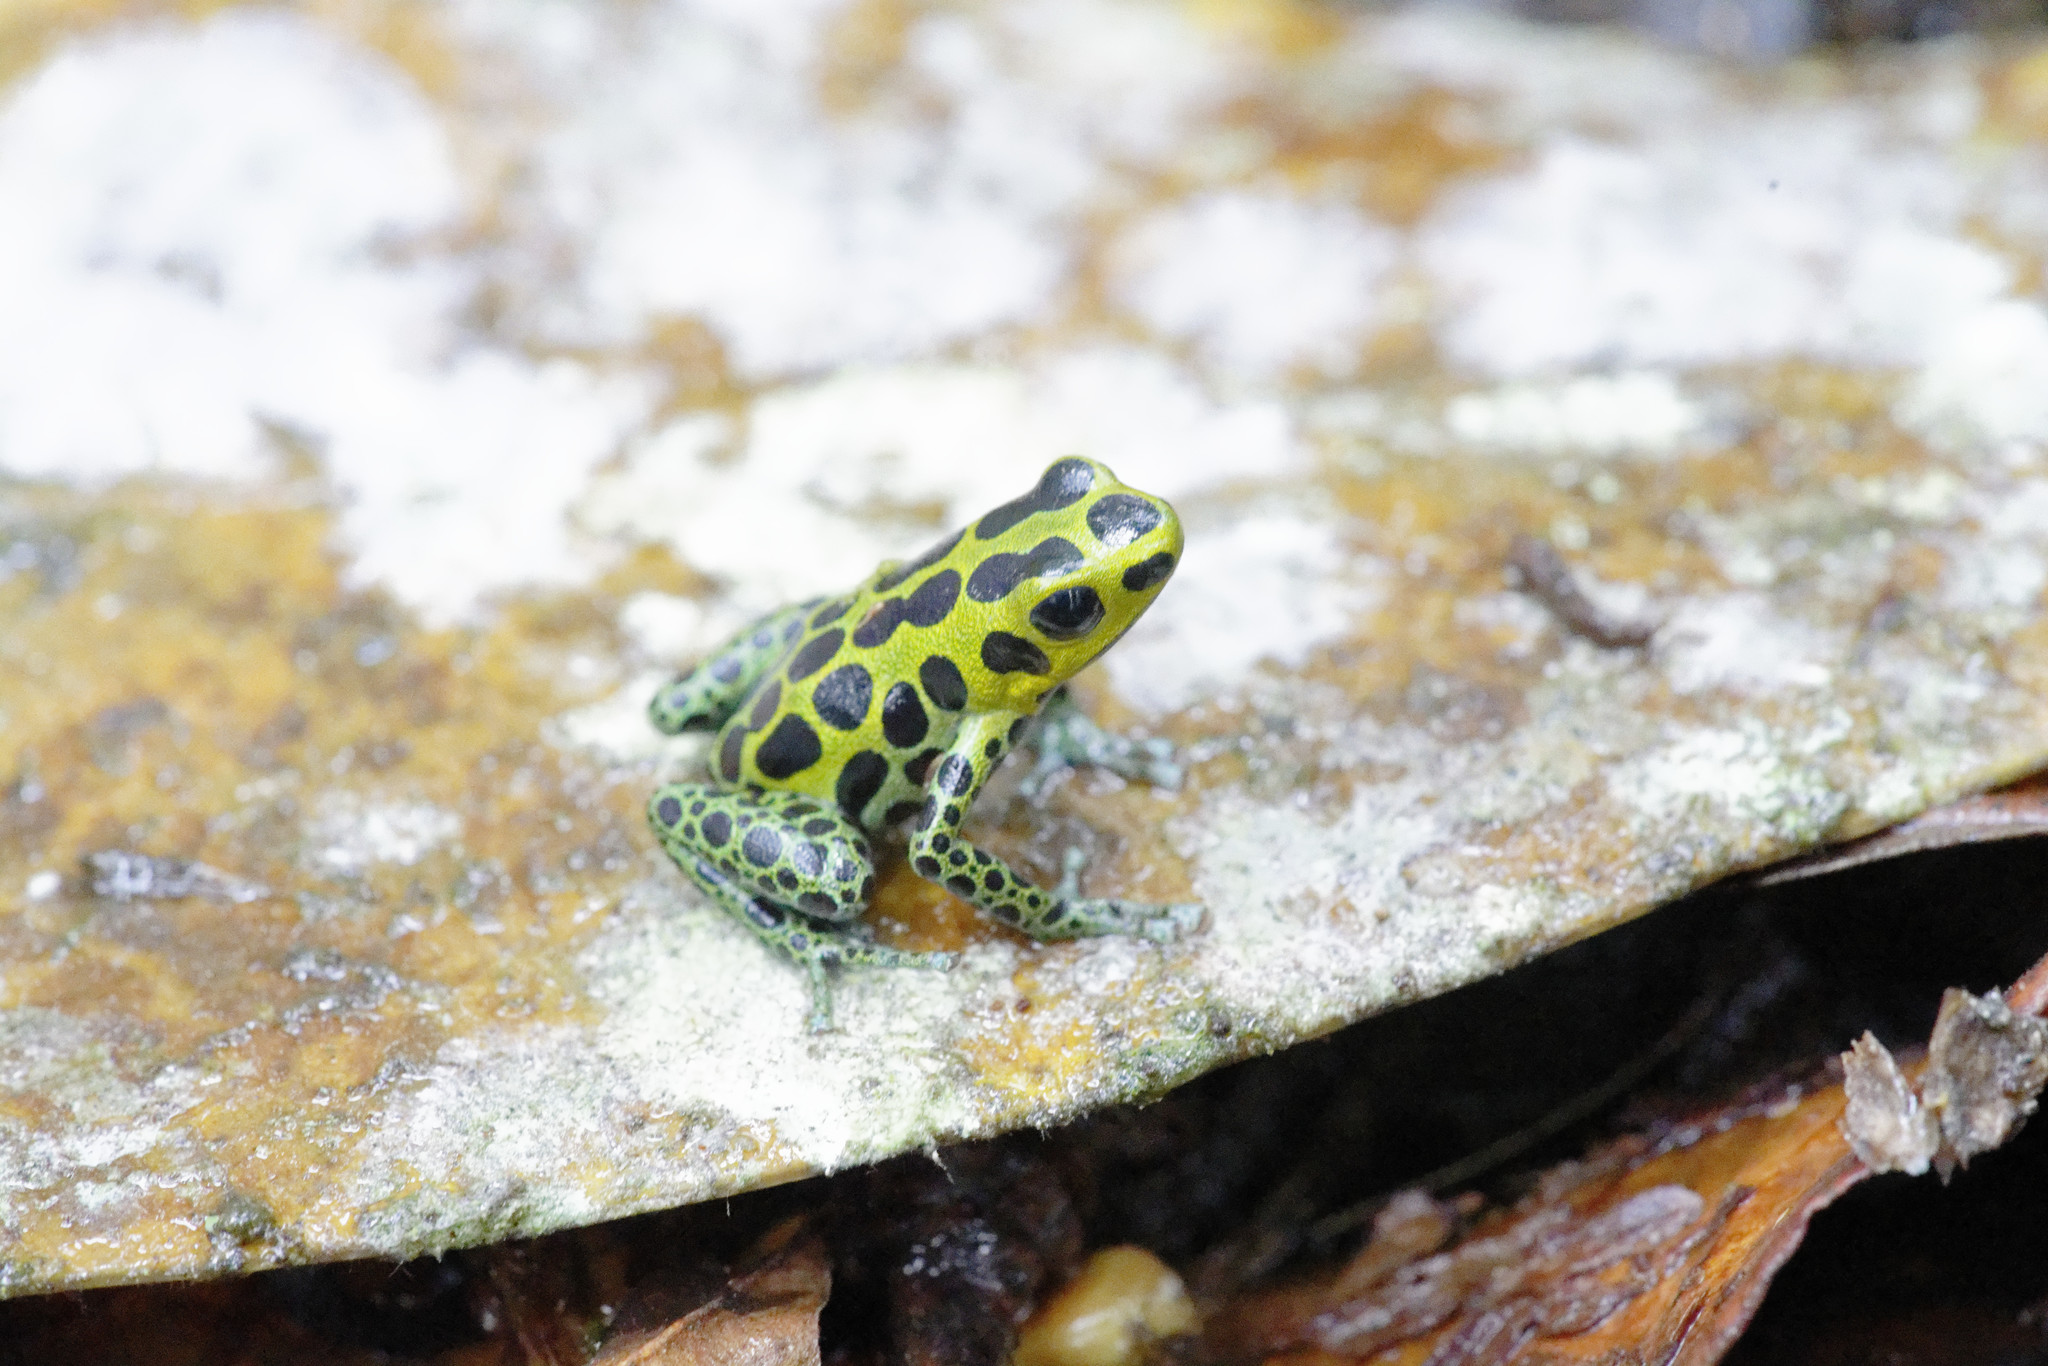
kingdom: Animalia
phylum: Chordata
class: Amphibia
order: Anura
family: Dendrobatidae
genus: Ranitomeya
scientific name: Ranitomeya variabilis
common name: Variable poison frog
